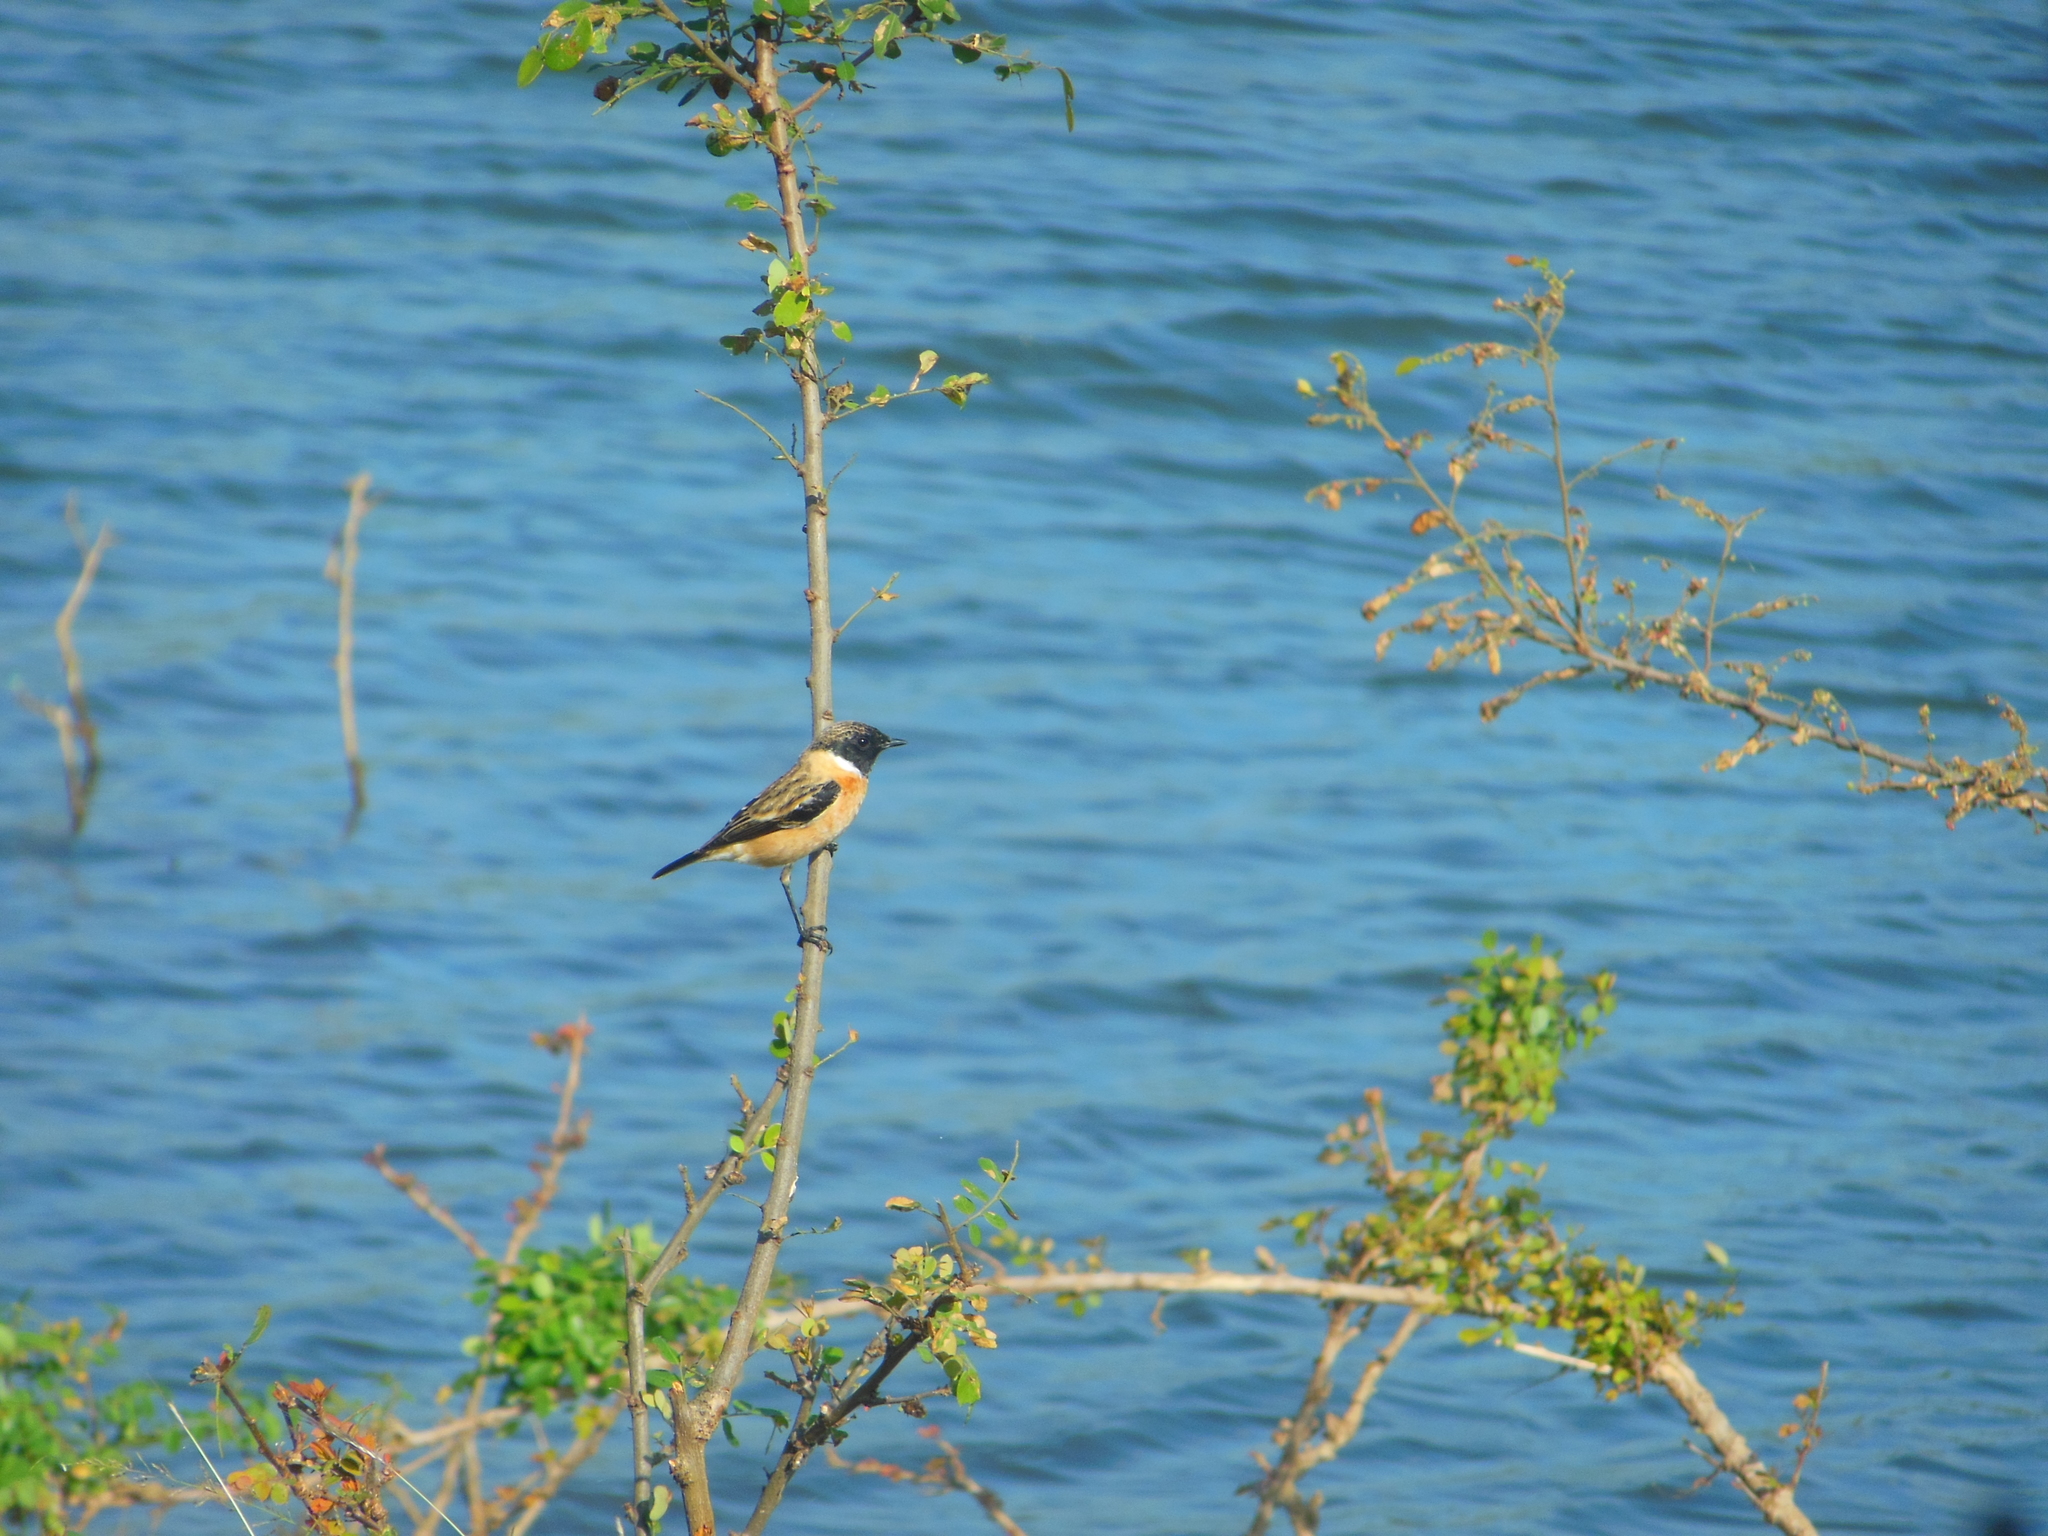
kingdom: Animalia
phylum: Chordata
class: Aves
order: Passeriformes
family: Muscicapidae
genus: Saxicola
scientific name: Saxicola maurus
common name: Siberian stonechat
